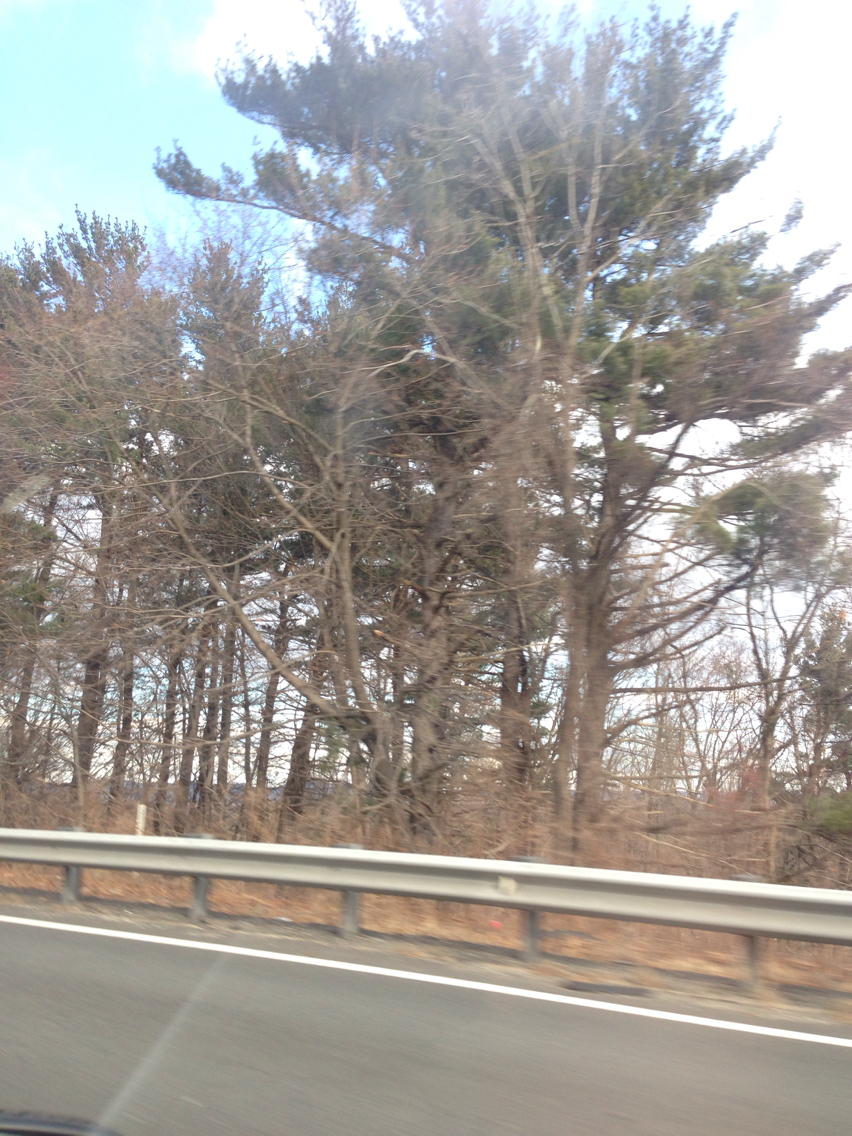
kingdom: Plantae
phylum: Tracheophyta
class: Pinopsida
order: Pinales
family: Pinaceae
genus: Pinus
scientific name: Pinus strobus
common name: Weymouth pine
